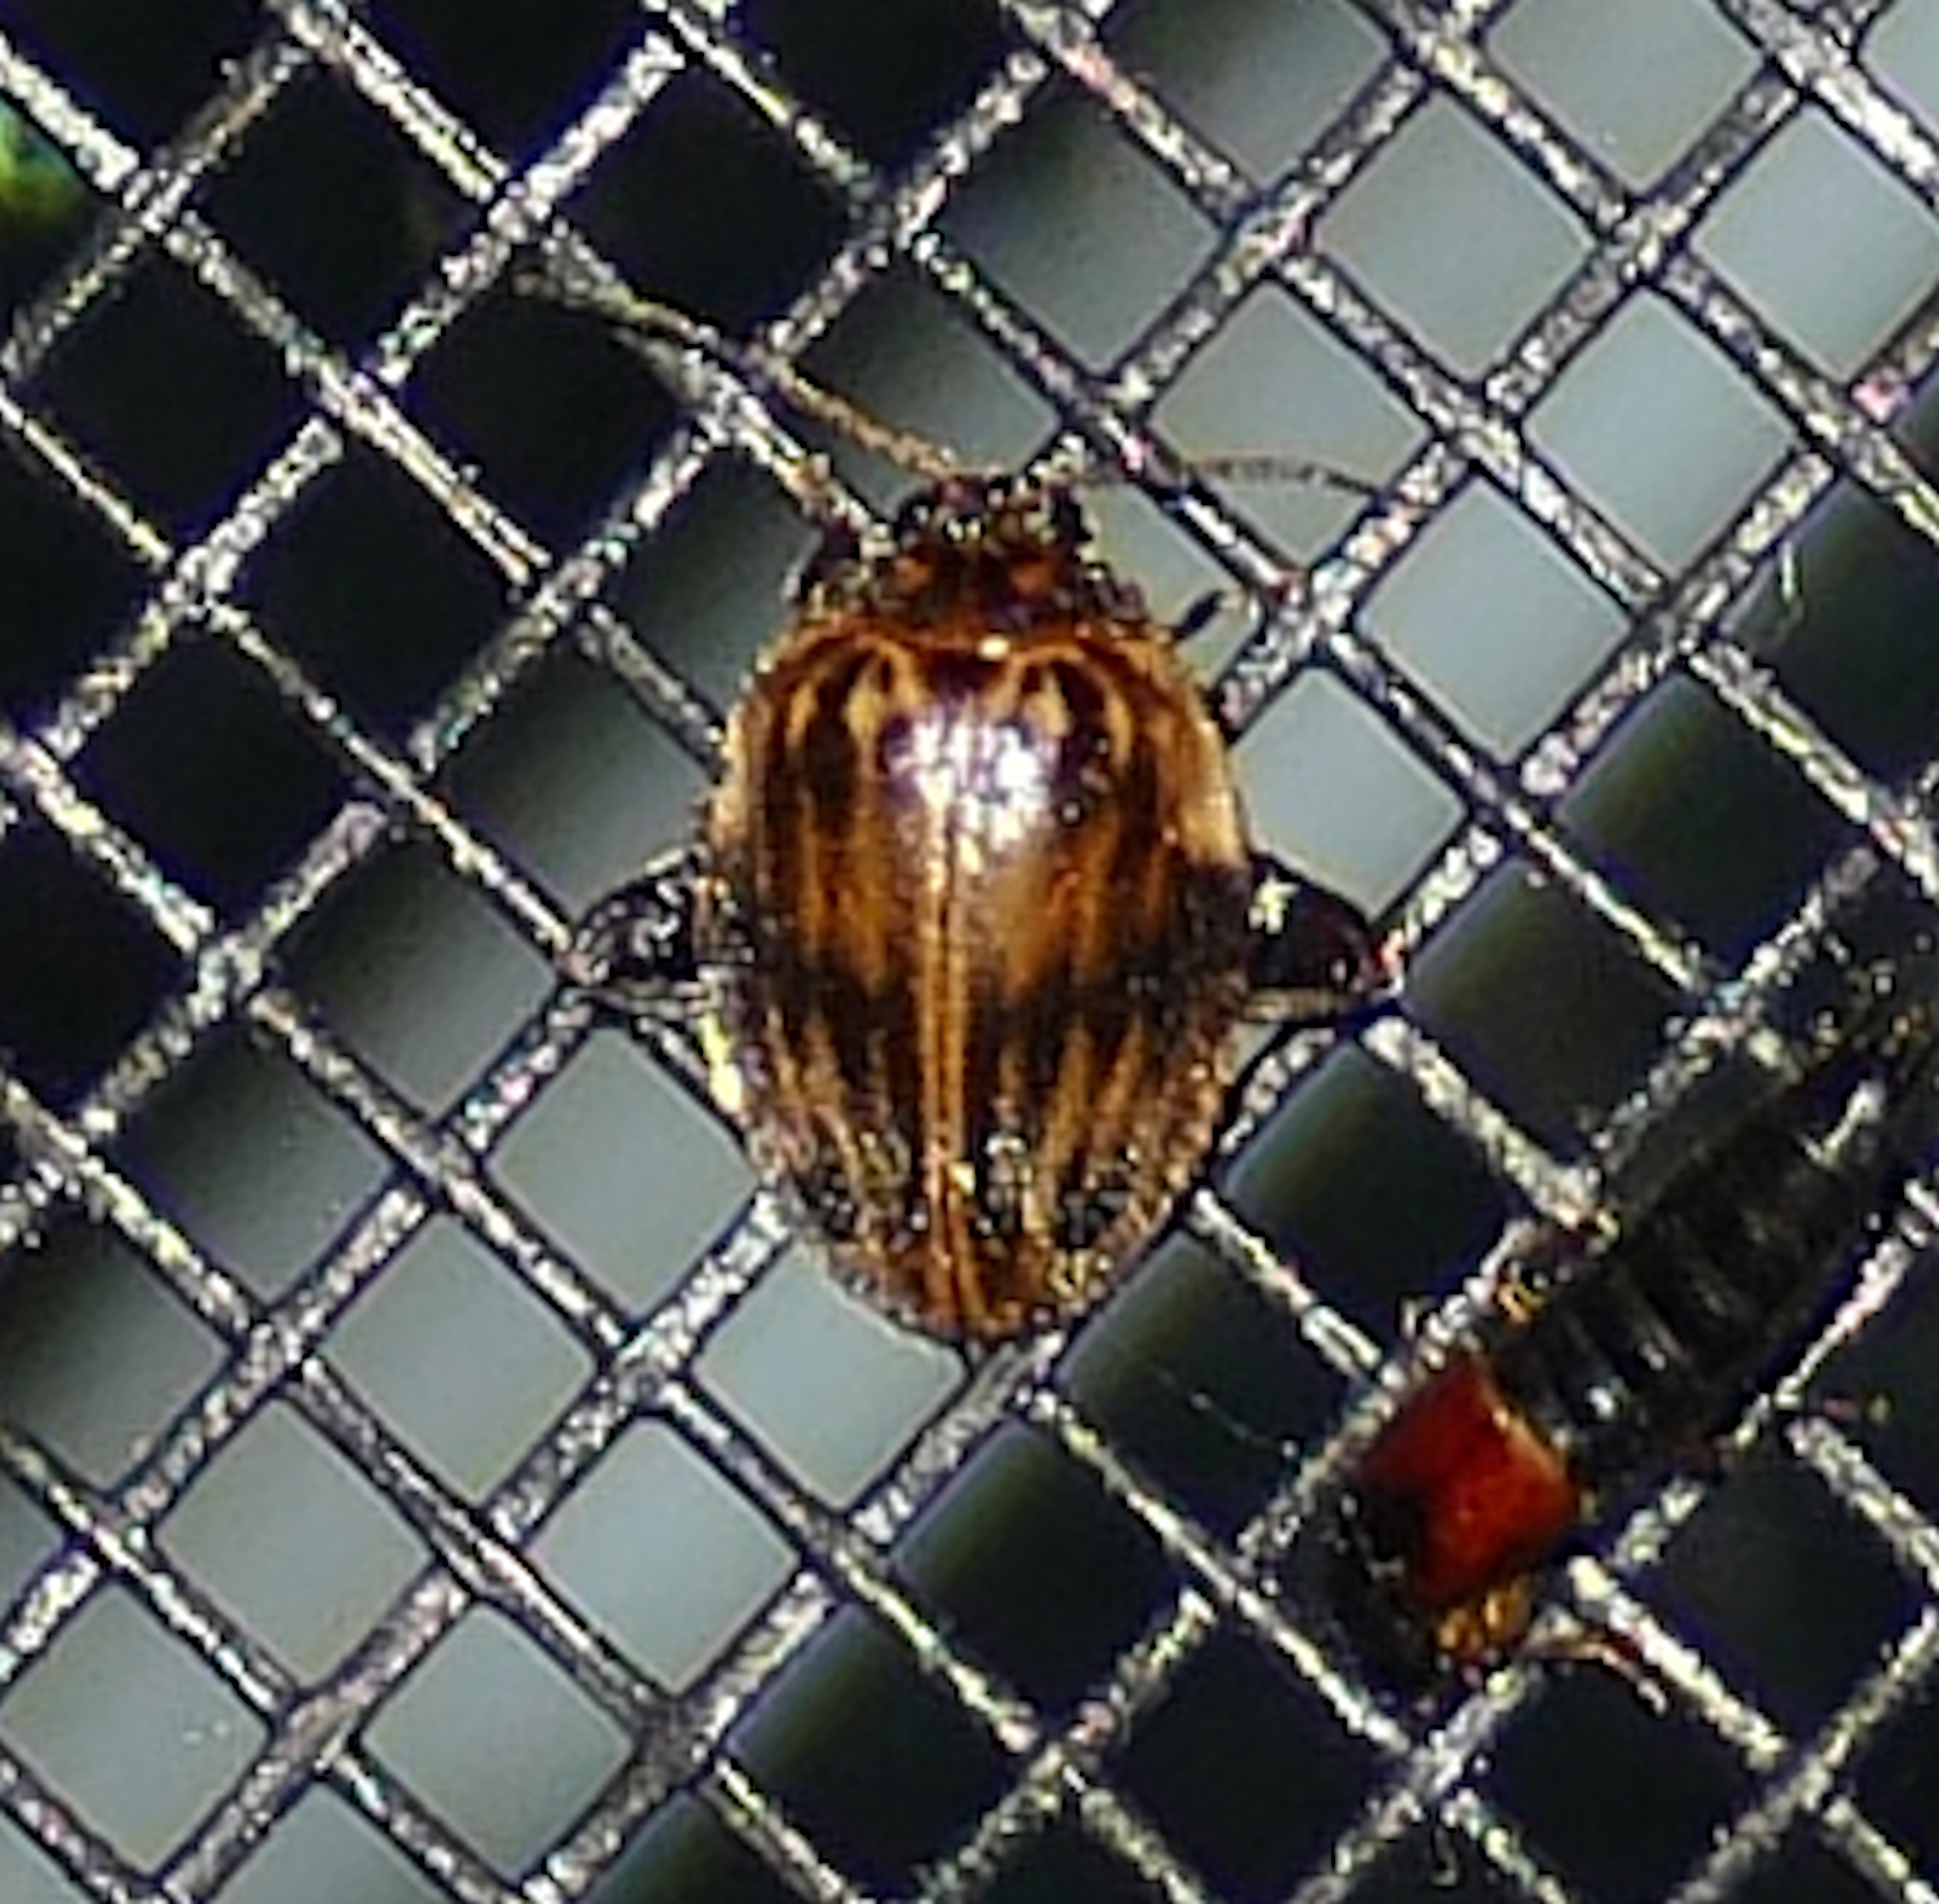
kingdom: Animalia
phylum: Arthropoda
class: Insecta
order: Coleoptera
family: Scirtidae
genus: Ora
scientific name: Ora texana
